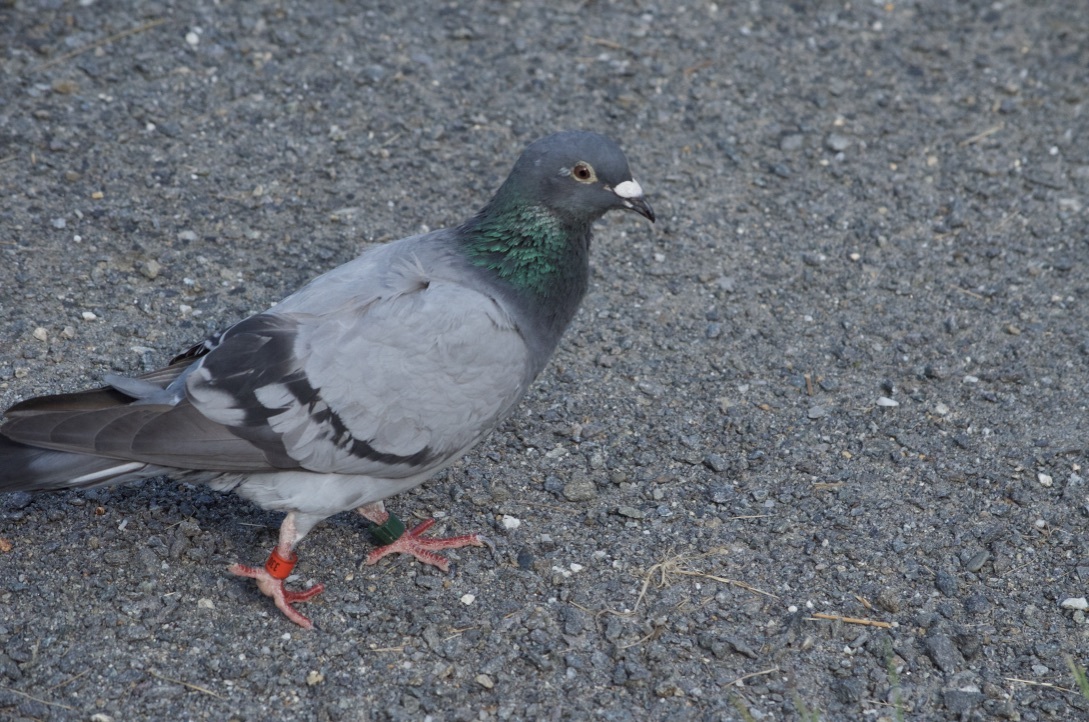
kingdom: Animalia
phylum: Chordata
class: Aves
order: Columbiformes
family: Columbidae
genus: Columba
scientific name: Columba livia
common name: Rock pigeon
